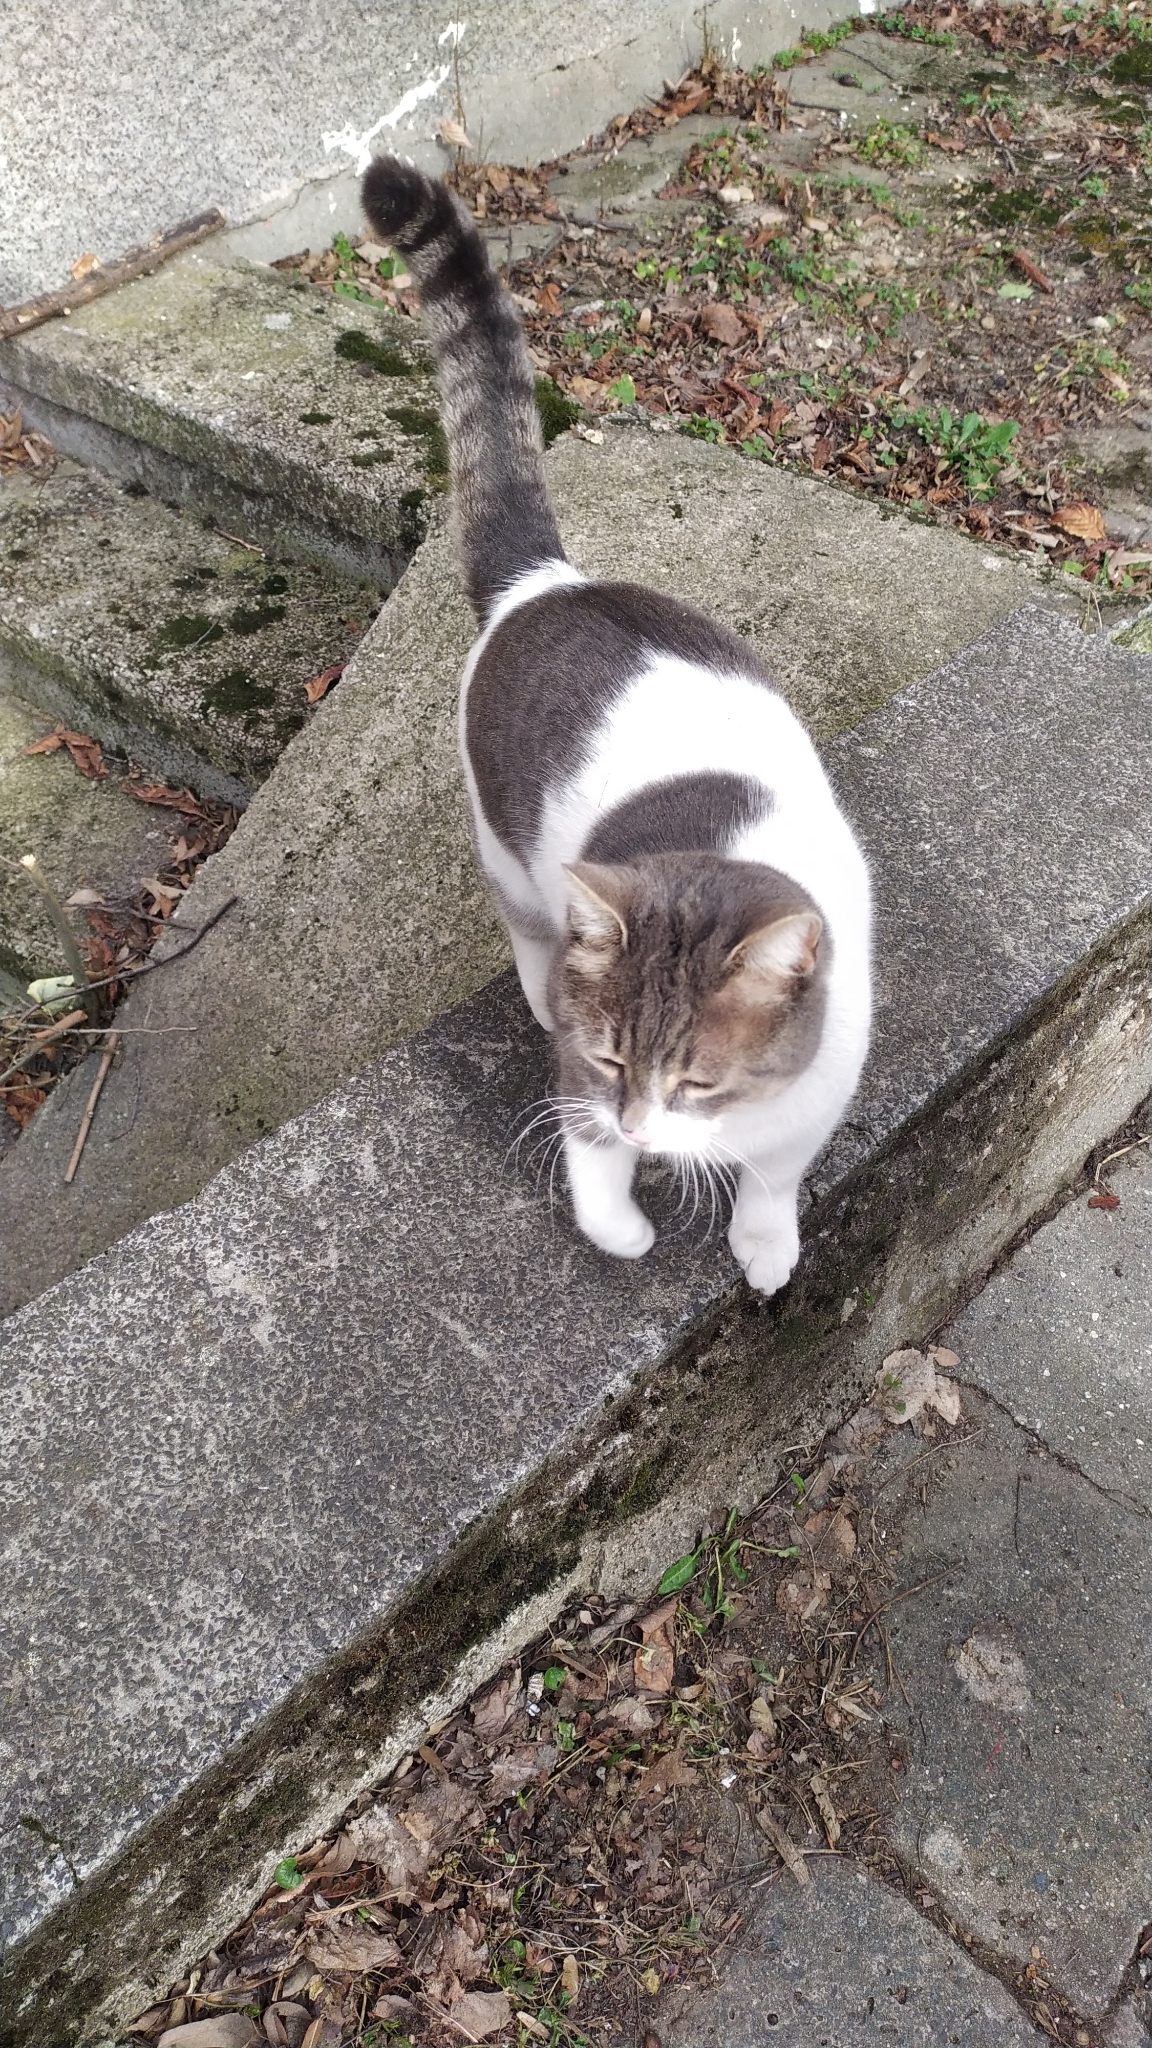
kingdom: Animalia
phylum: Chordata
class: Mammalia
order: Carnivora
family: Felidae
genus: Felis
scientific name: Felis catus
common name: Domestic cat
